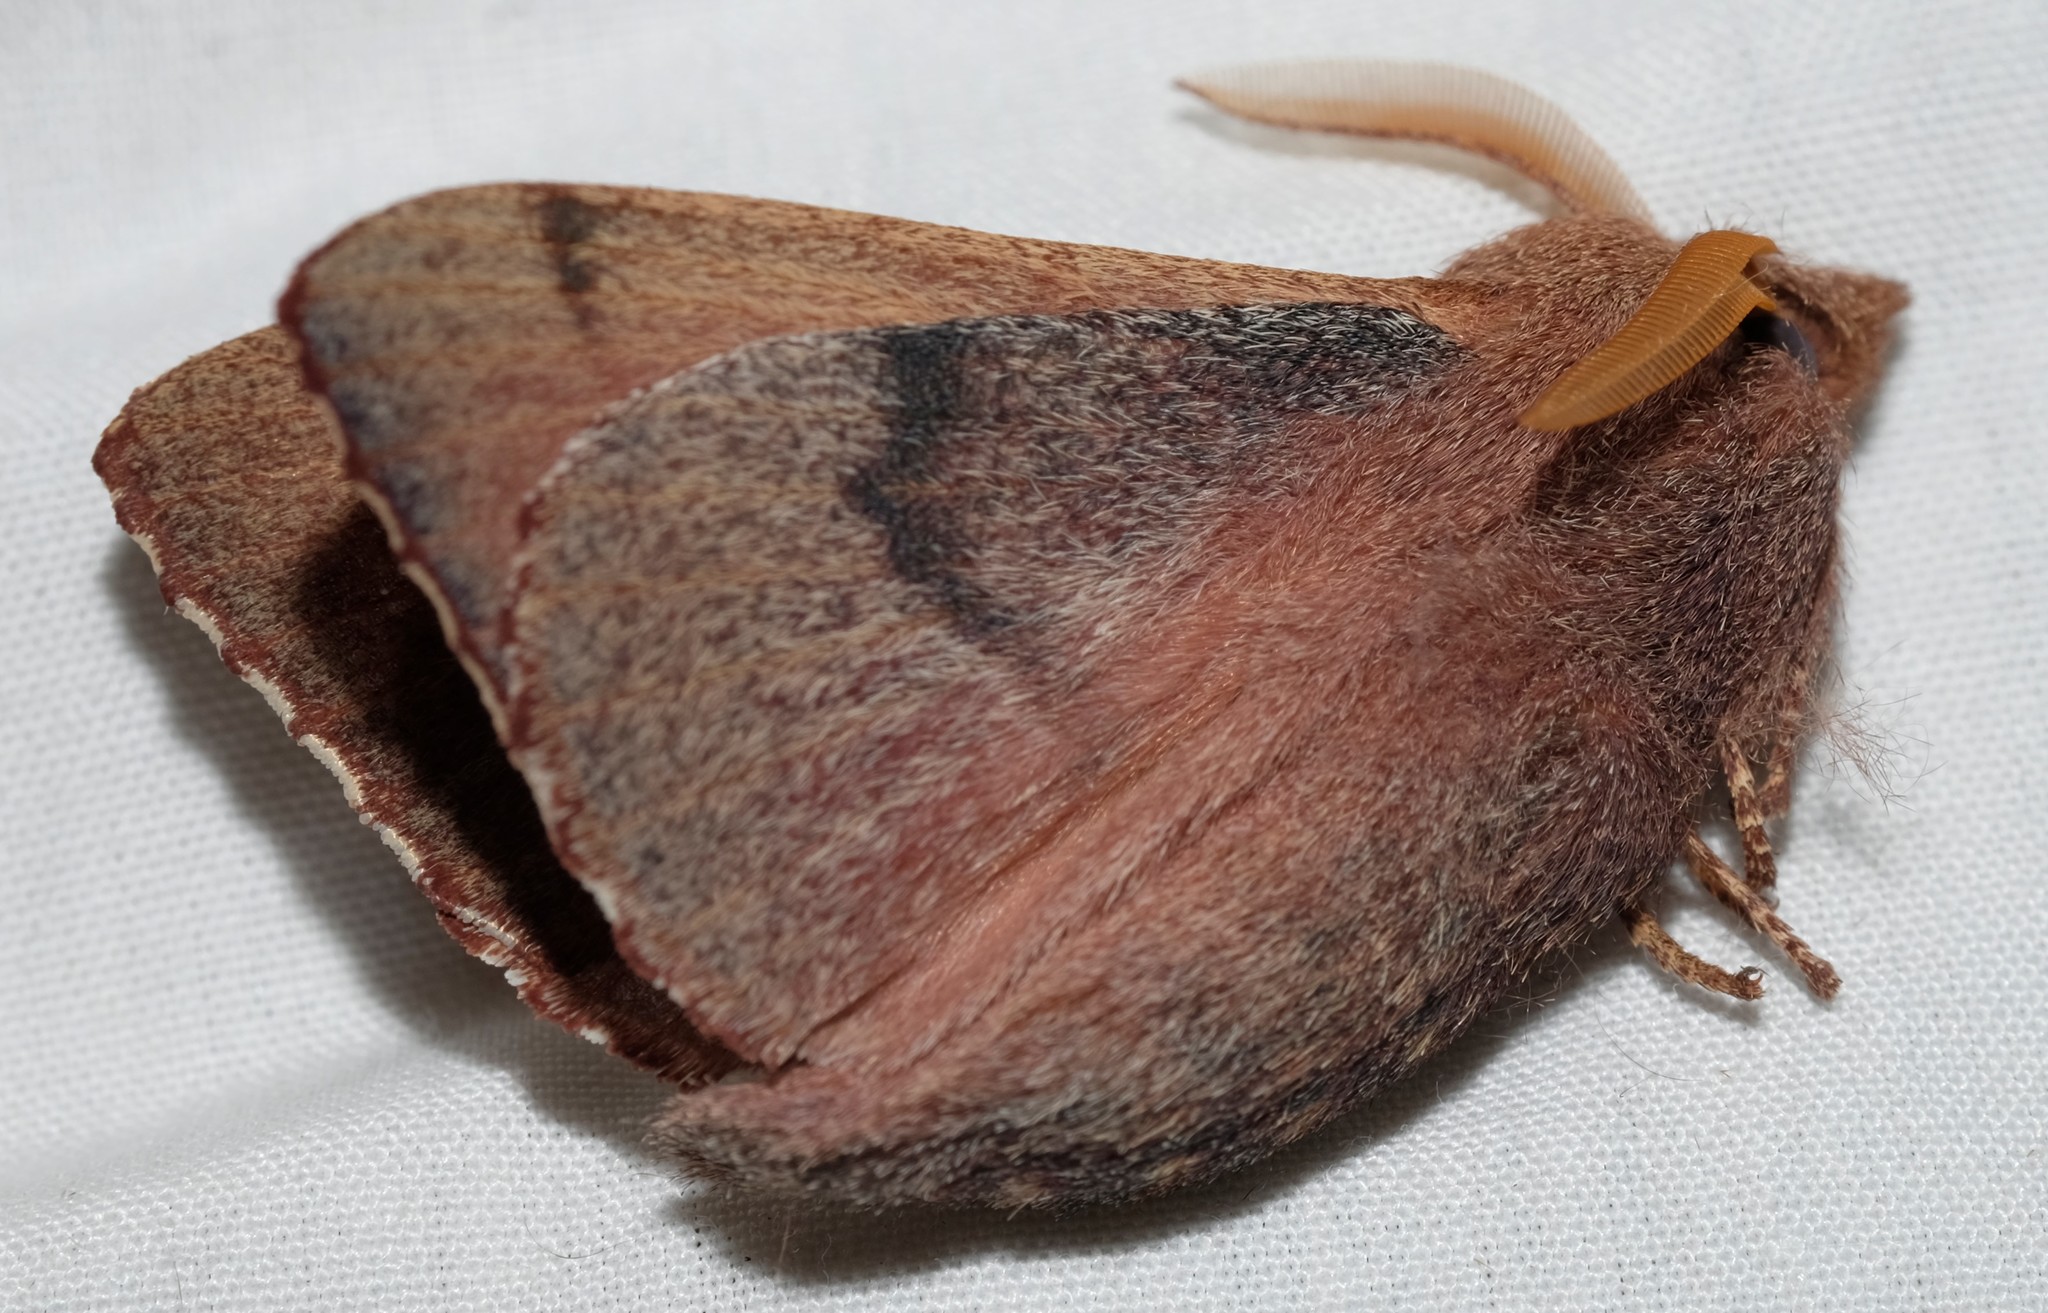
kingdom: Animalia
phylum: Arthropoda
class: Insecta
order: Lepidoptera
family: Lasiocampidae
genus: Pararguda
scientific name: Pararguda rufescens
